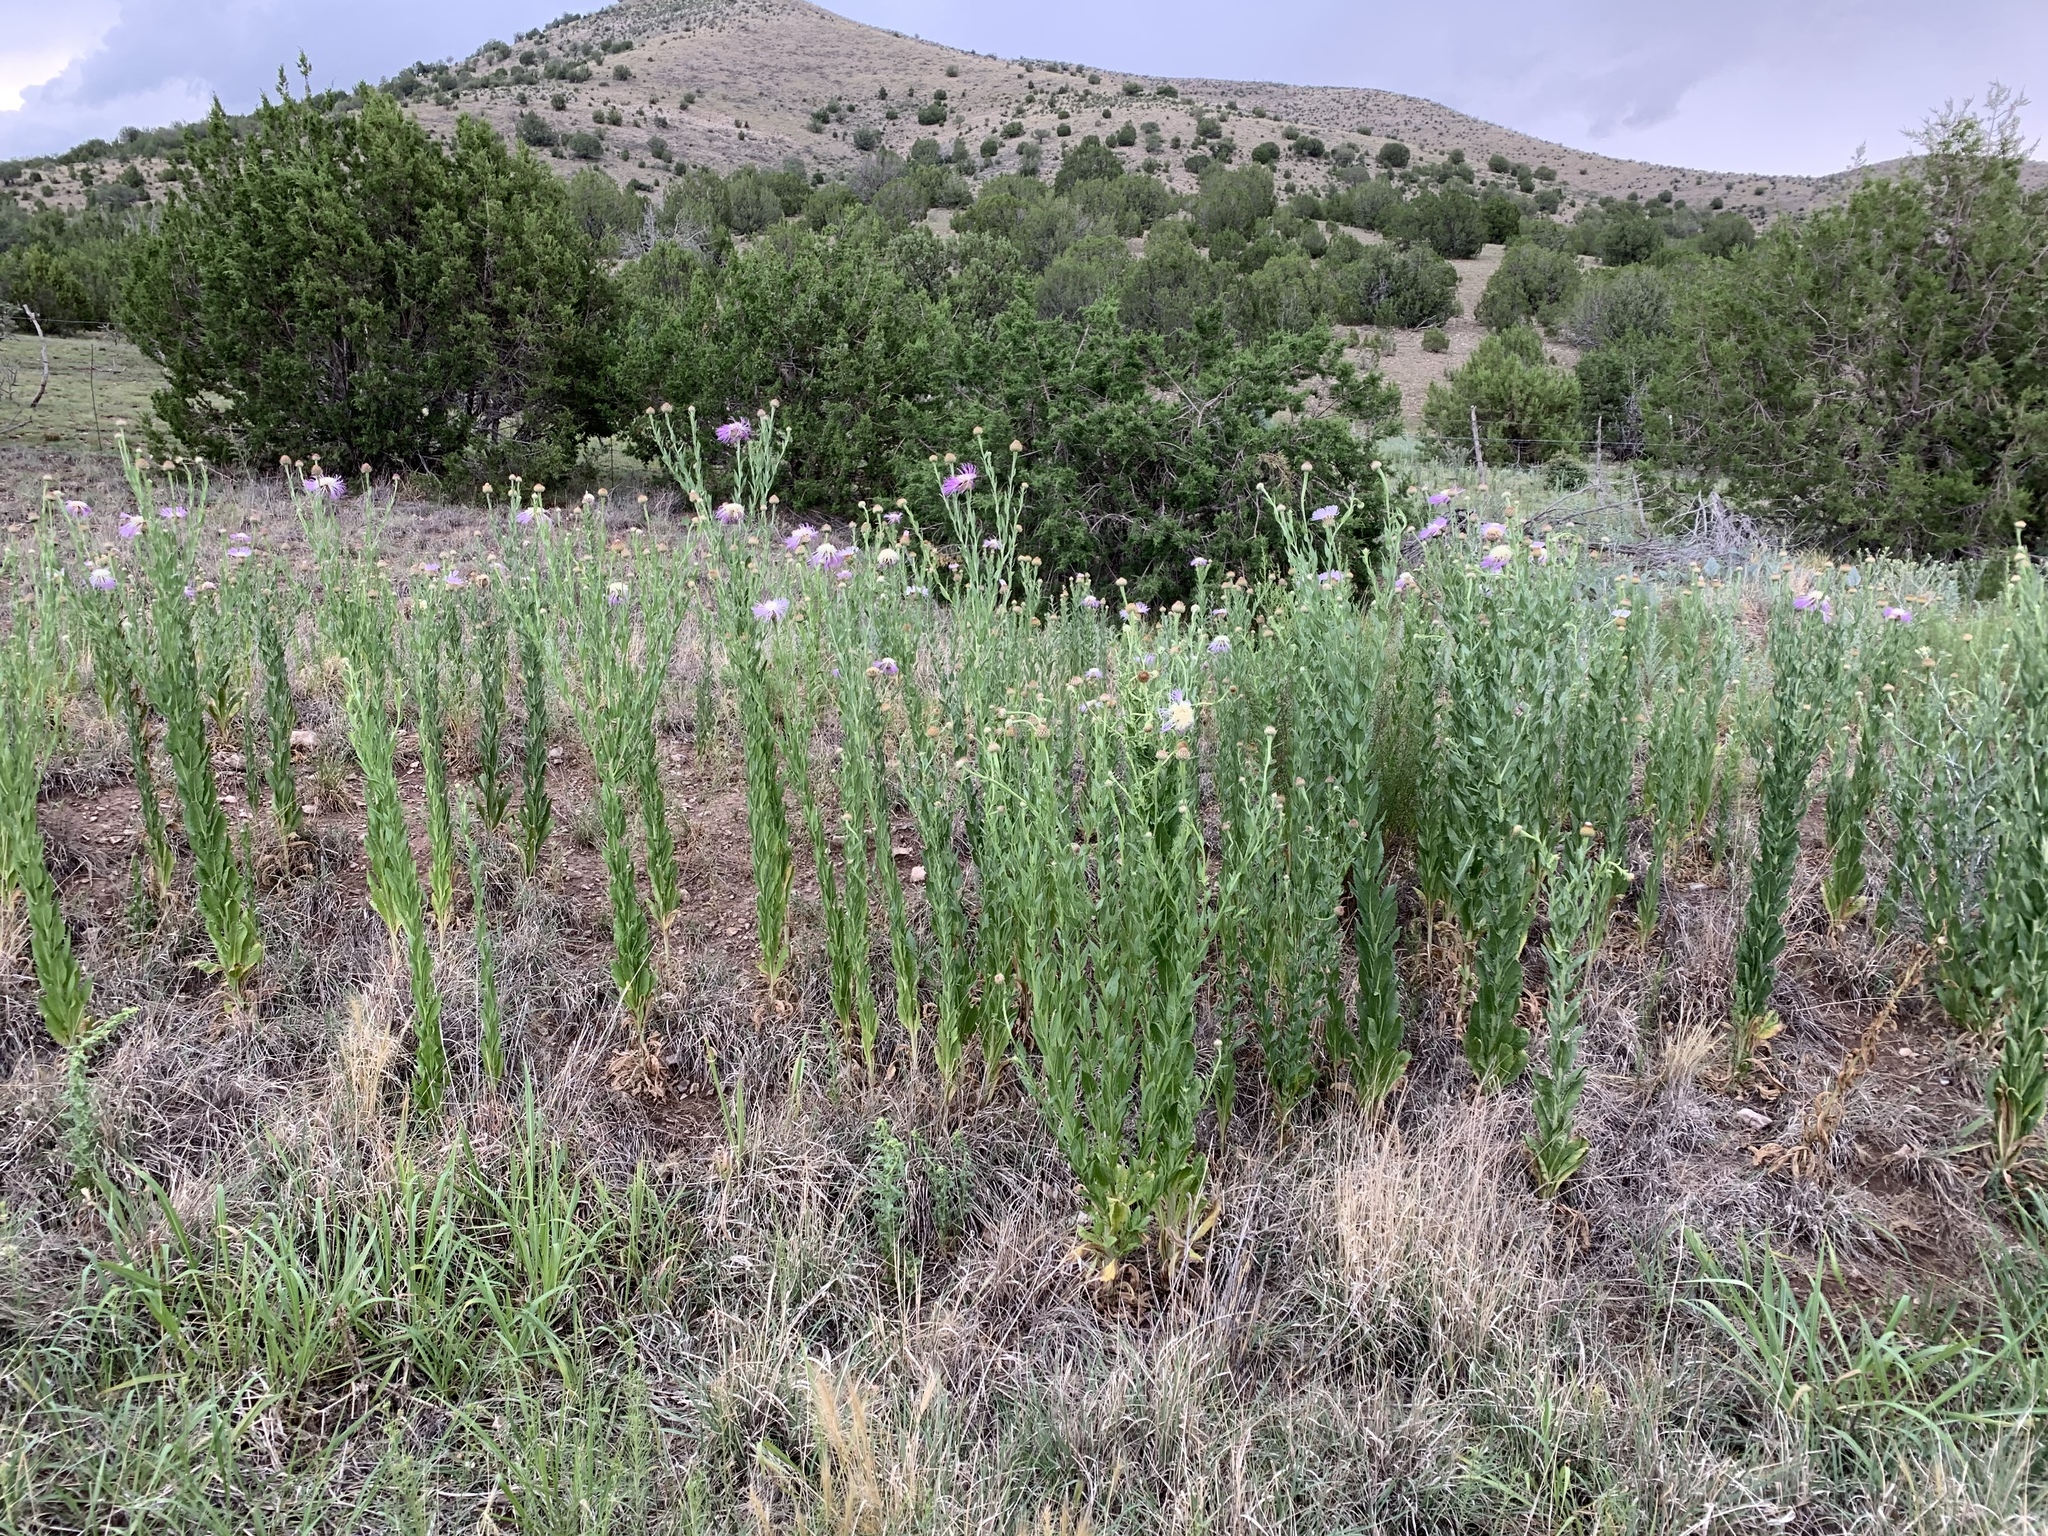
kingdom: Plantae
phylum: Tracheophyta
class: Magnoliopsida
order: Asterales
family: Asteraceae
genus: Plectocephalus
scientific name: Plectocephalus americanus
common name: American basket-flower
